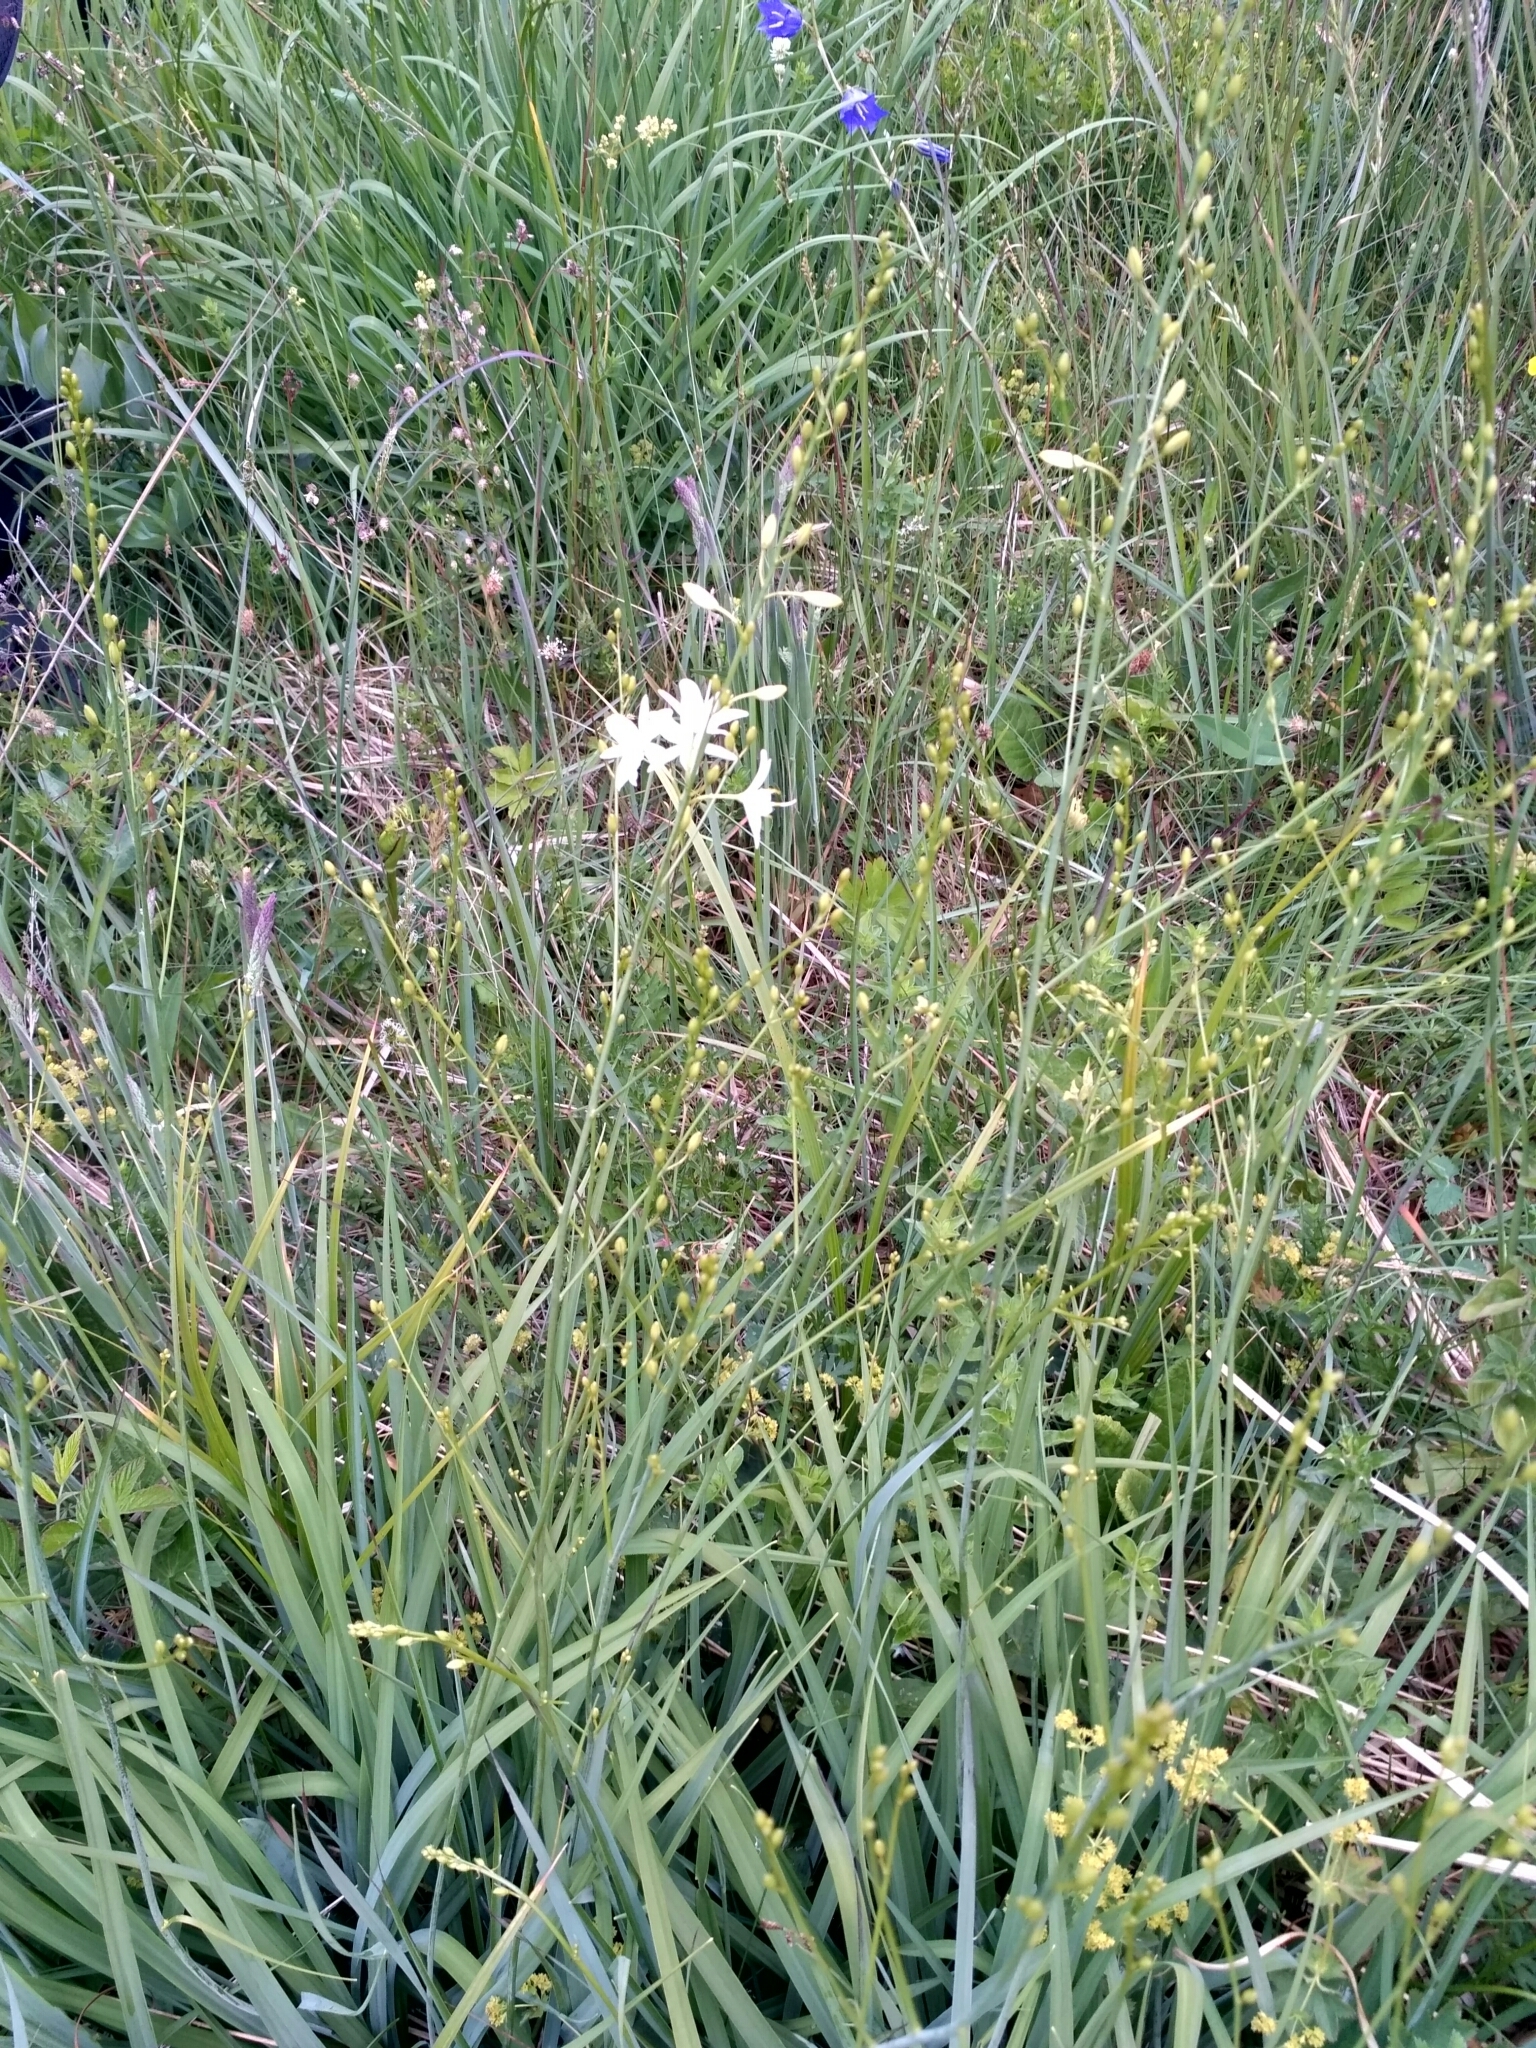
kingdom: Plantae
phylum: Tracheophyta
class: Liliopsida
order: Asparagales
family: Asparagaceae
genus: Anthericum
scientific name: Anthericum ramosum
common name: Branched st. bernard's-lily
